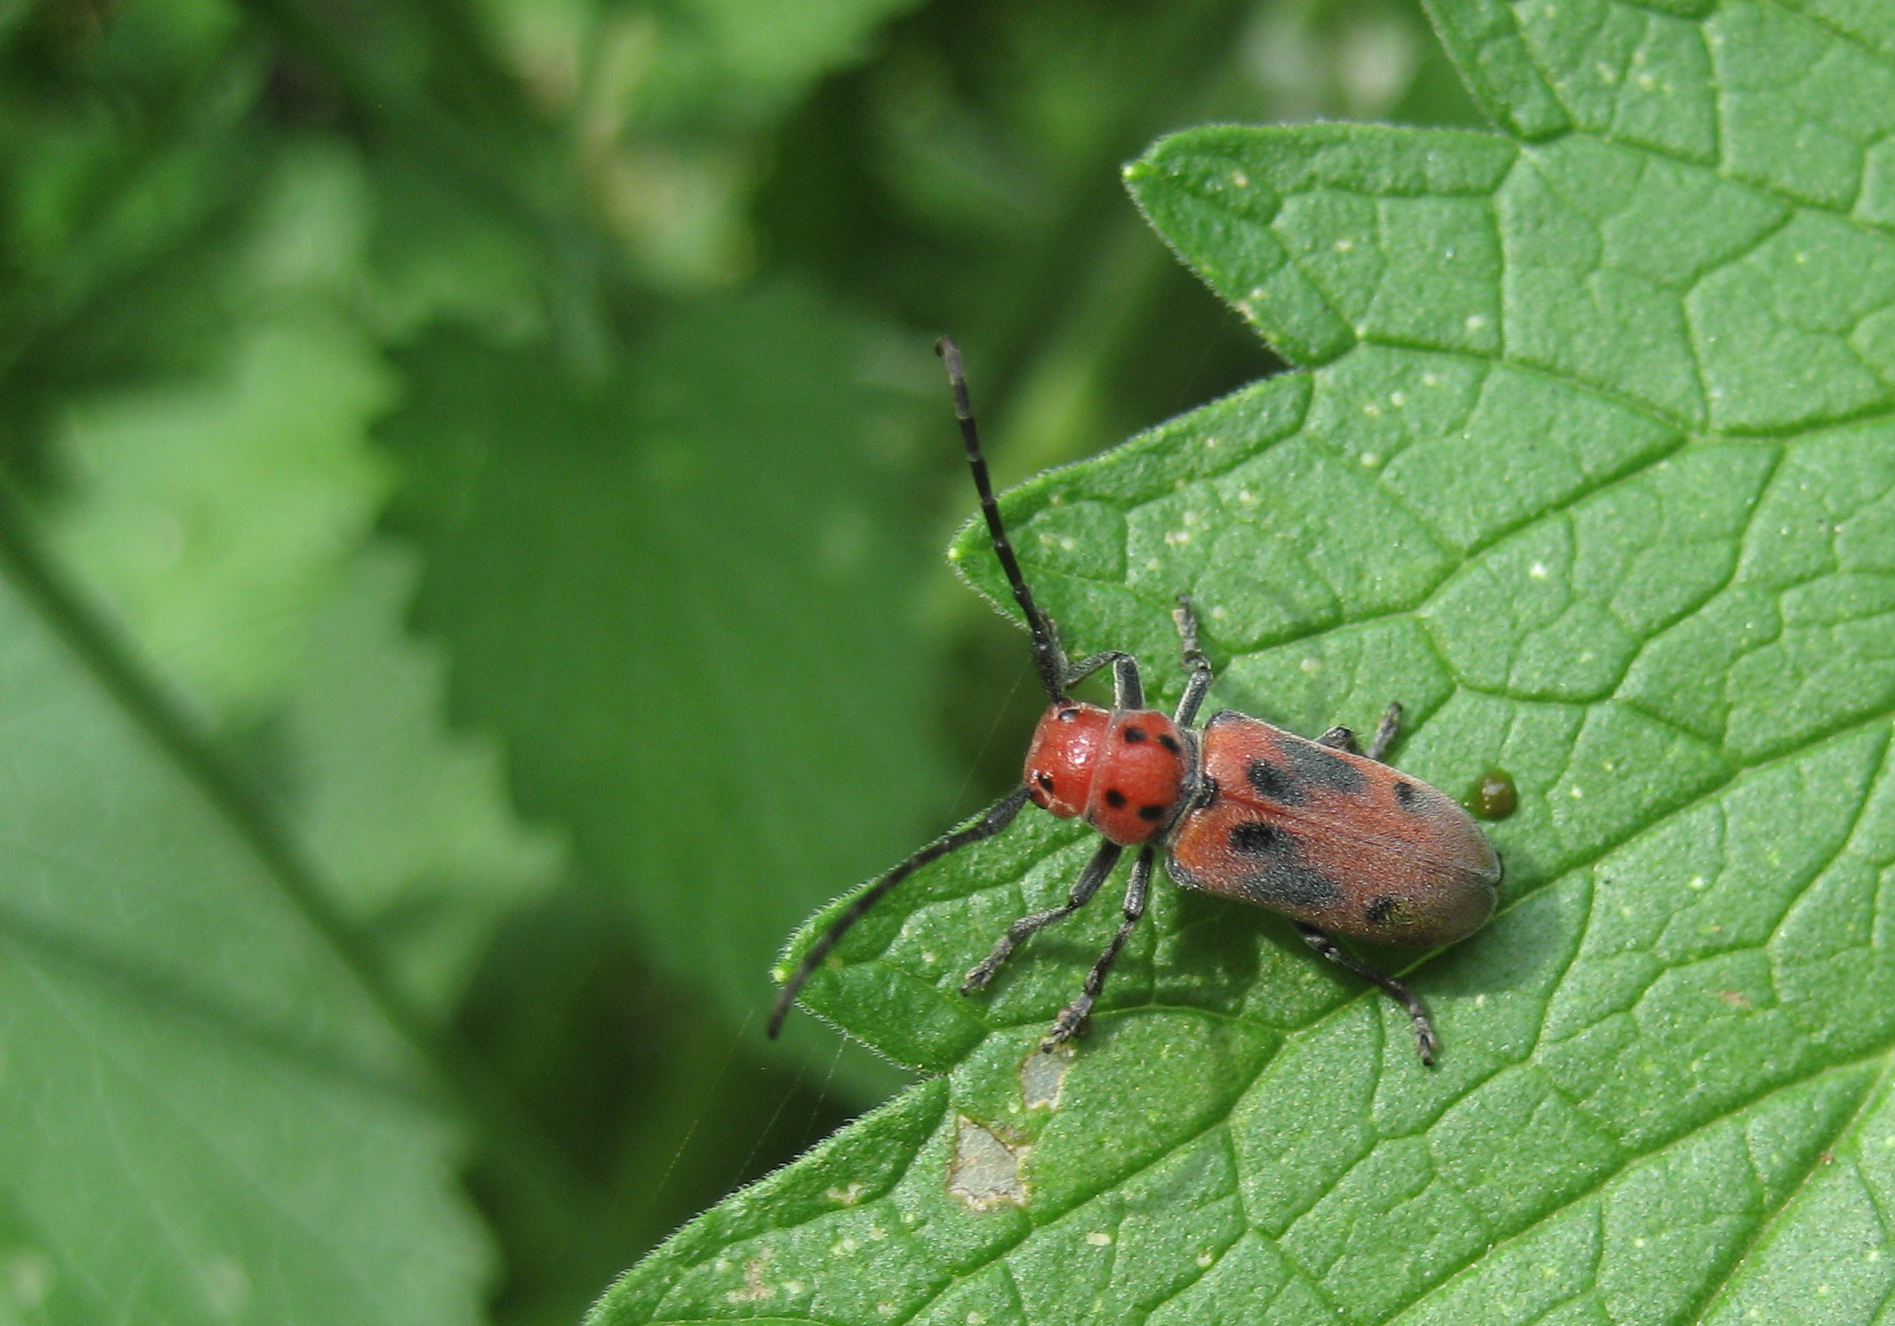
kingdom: Animalia
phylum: Arthropoda
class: Insecta
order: Coleoptera
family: Cerambycidae
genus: Tetraopes
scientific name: Tetraopes tetrophthalmus
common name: Red milkweed beetle
